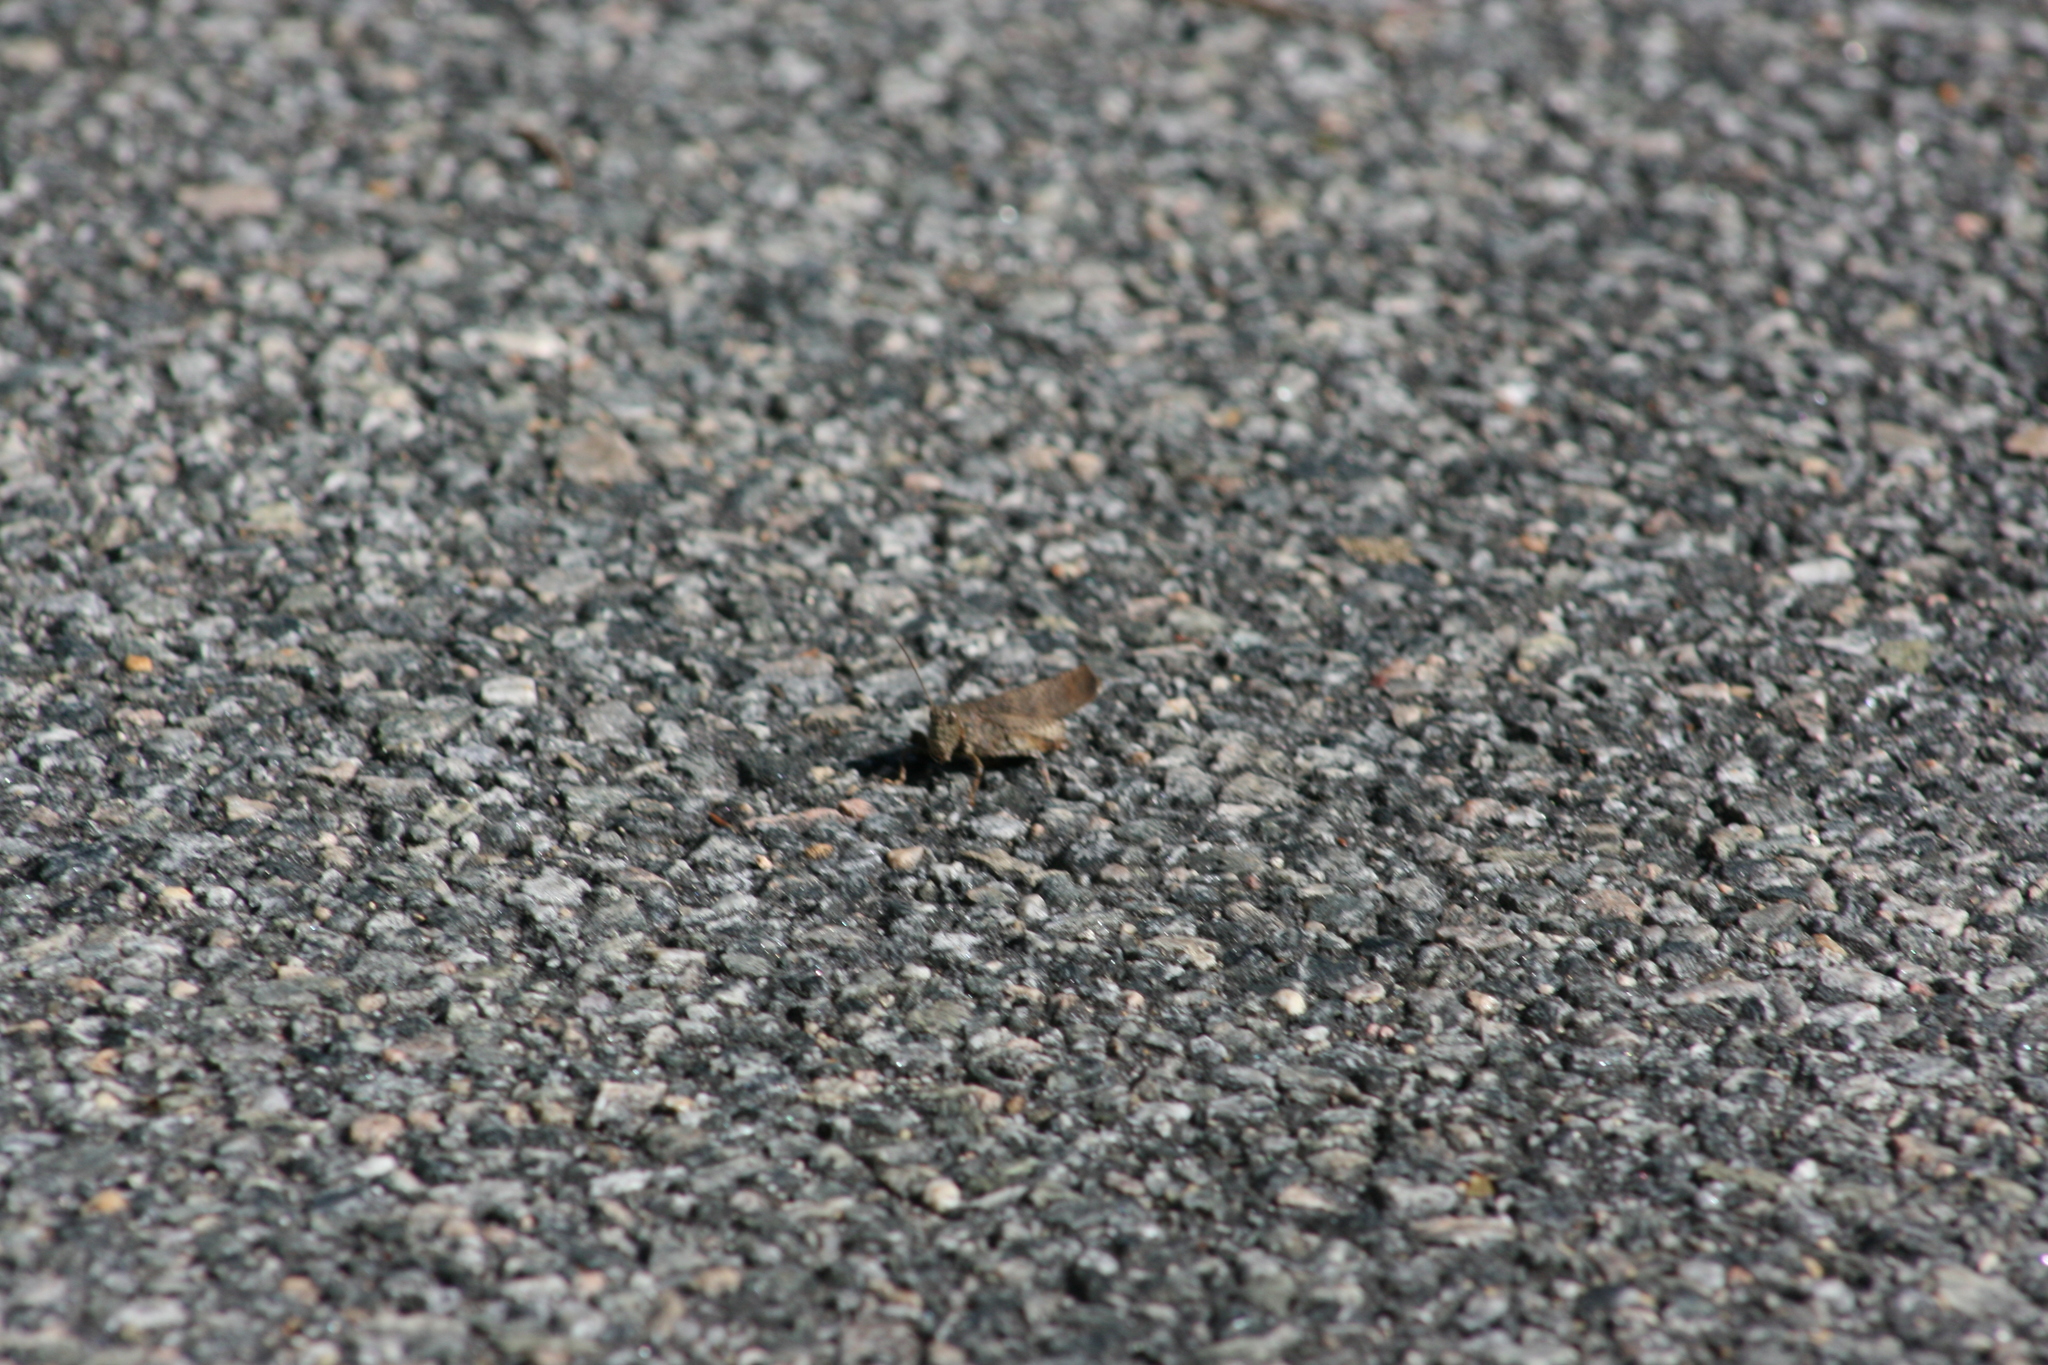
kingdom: Animalia
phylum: Arthropoda
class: Insecta
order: Orthoptera
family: Acrididae
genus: Dissosteira
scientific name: Dissosteira carolina
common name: Carolina grasshopper
